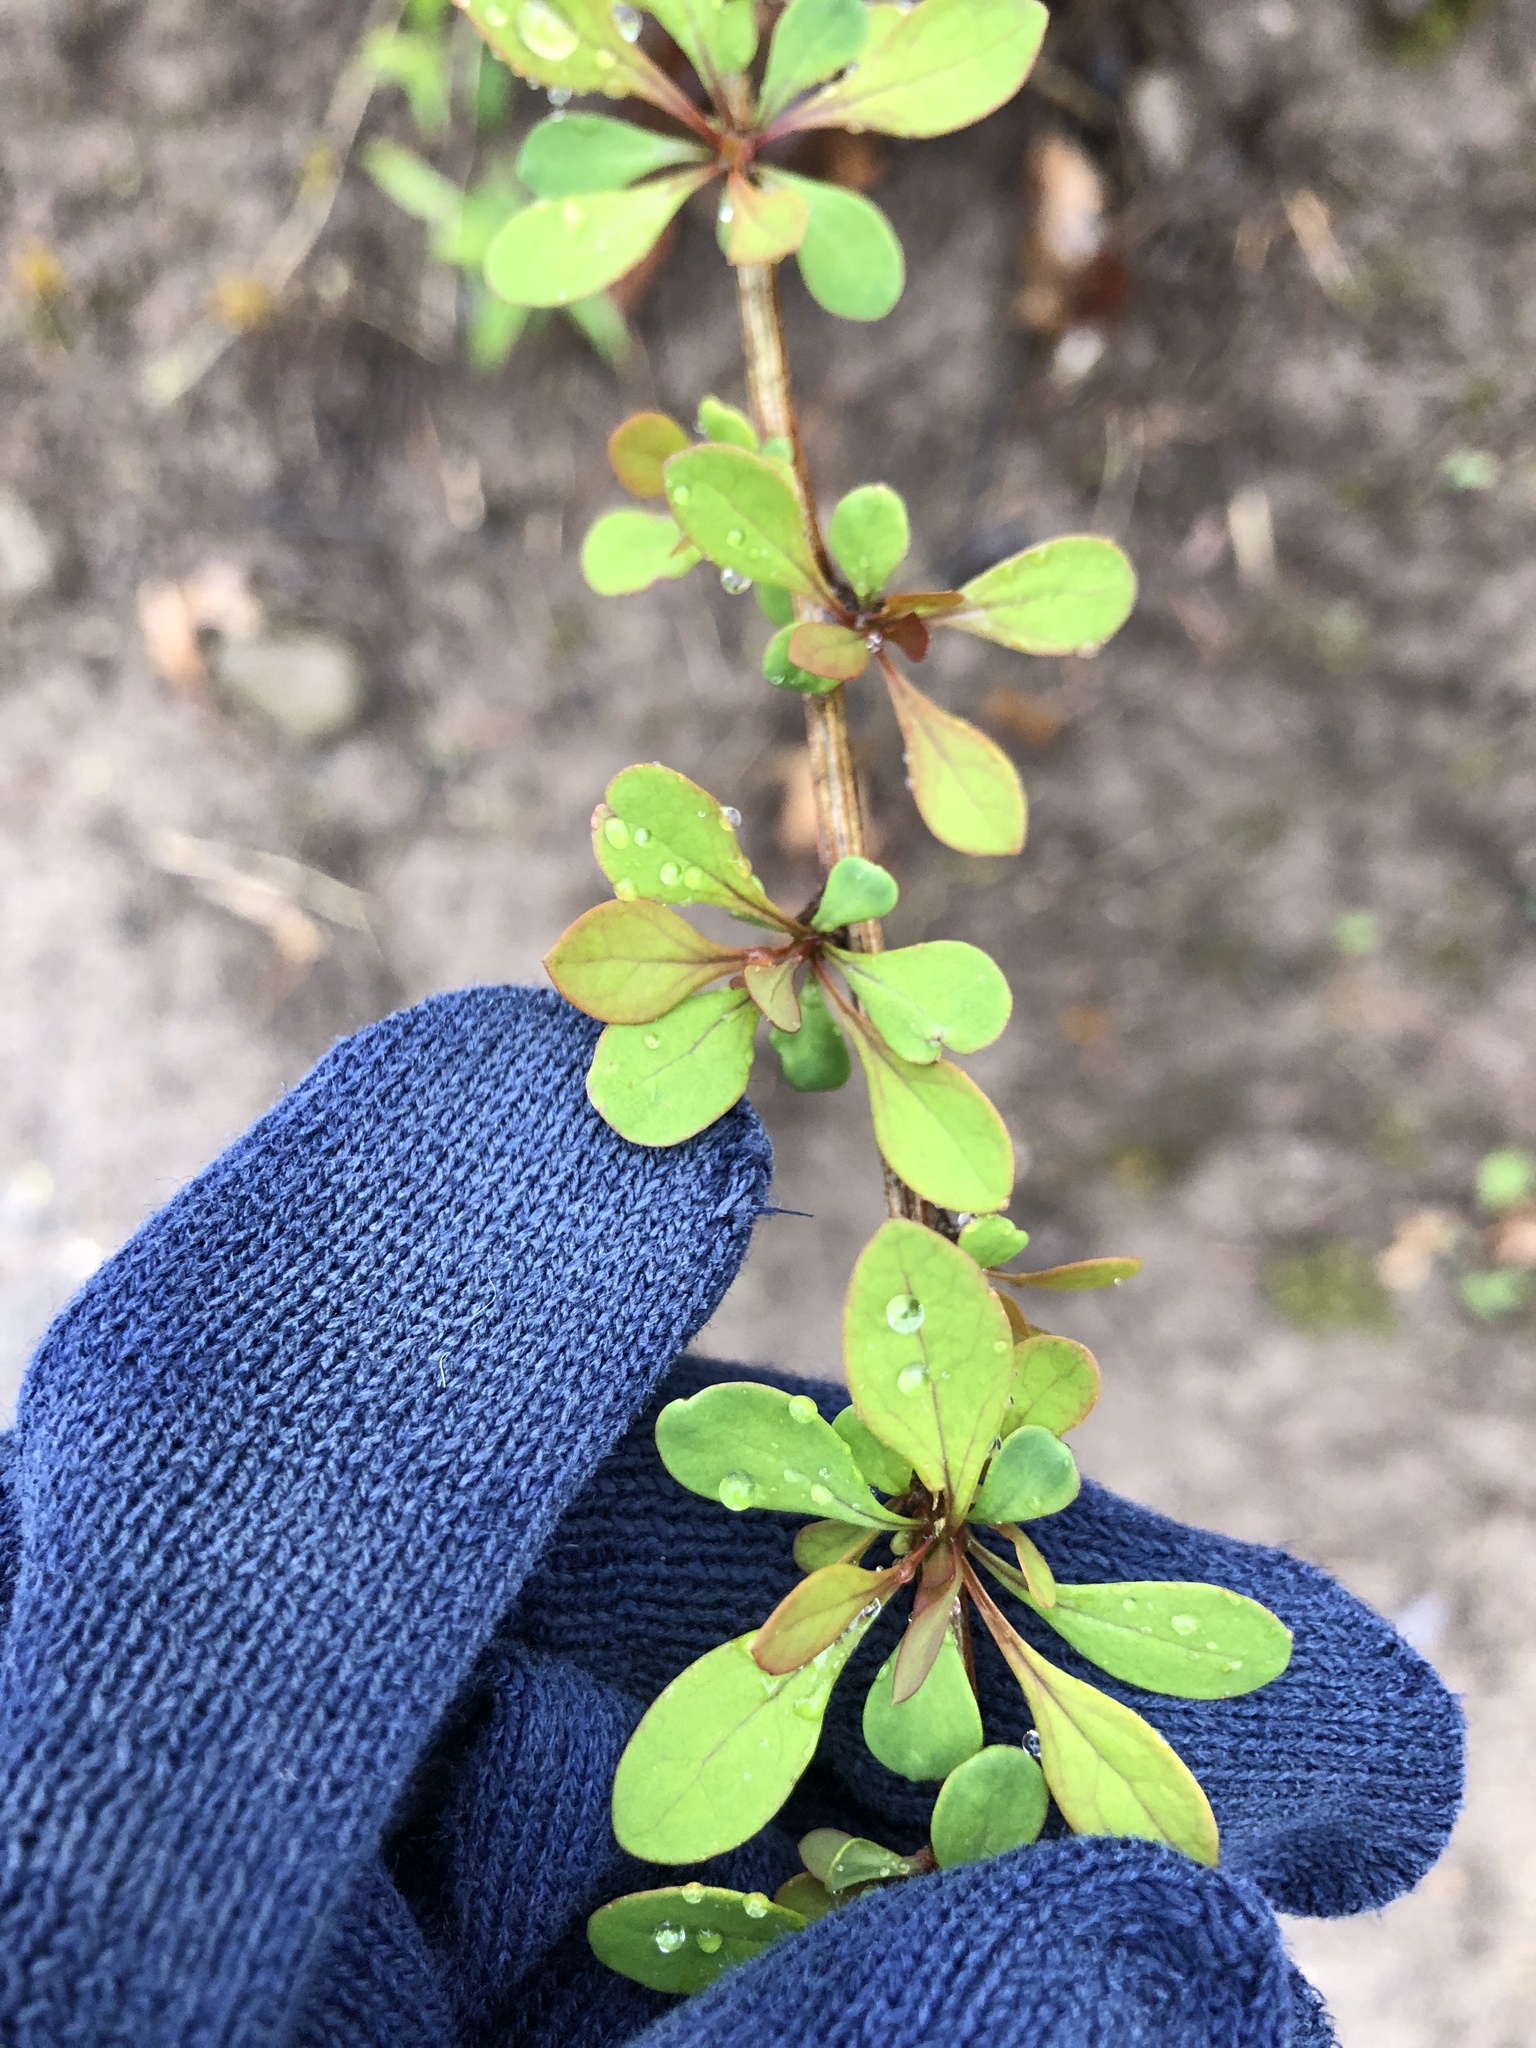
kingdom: Plantae
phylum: Tracheophyta
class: Magnoliopsida
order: Ranunculales
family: Berberidaceae
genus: Berberis
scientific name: Berberis thunbergii
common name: Japanese barberry
